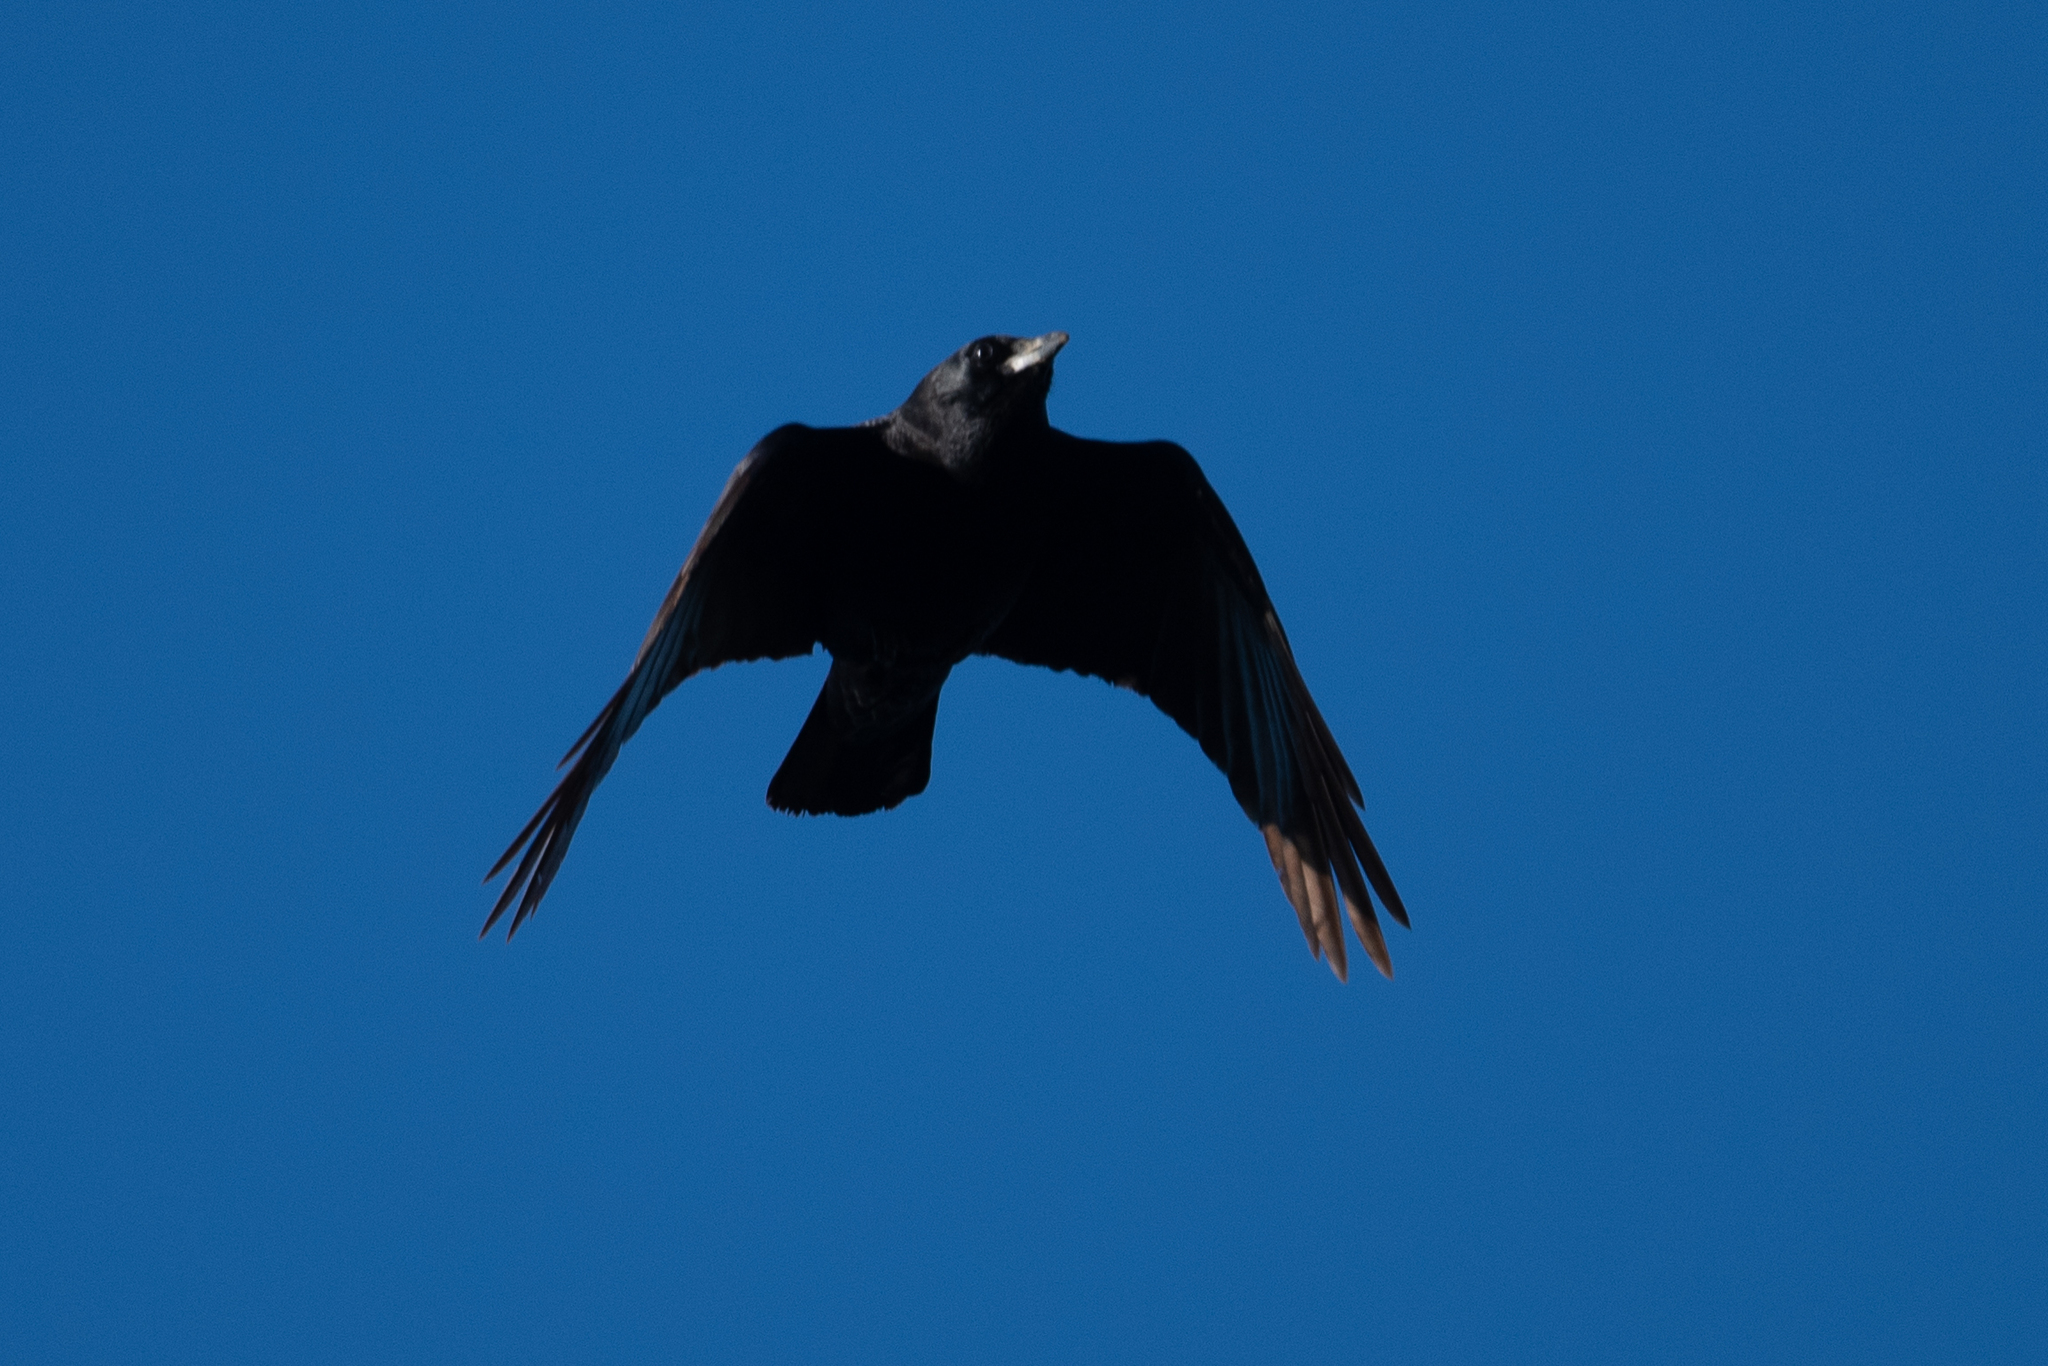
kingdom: Animalia
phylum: Chordata
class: Aves
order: Passeriformes
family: Corvidae
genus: Corvus
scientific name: Corvus brachyrhynchos
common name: American crow
